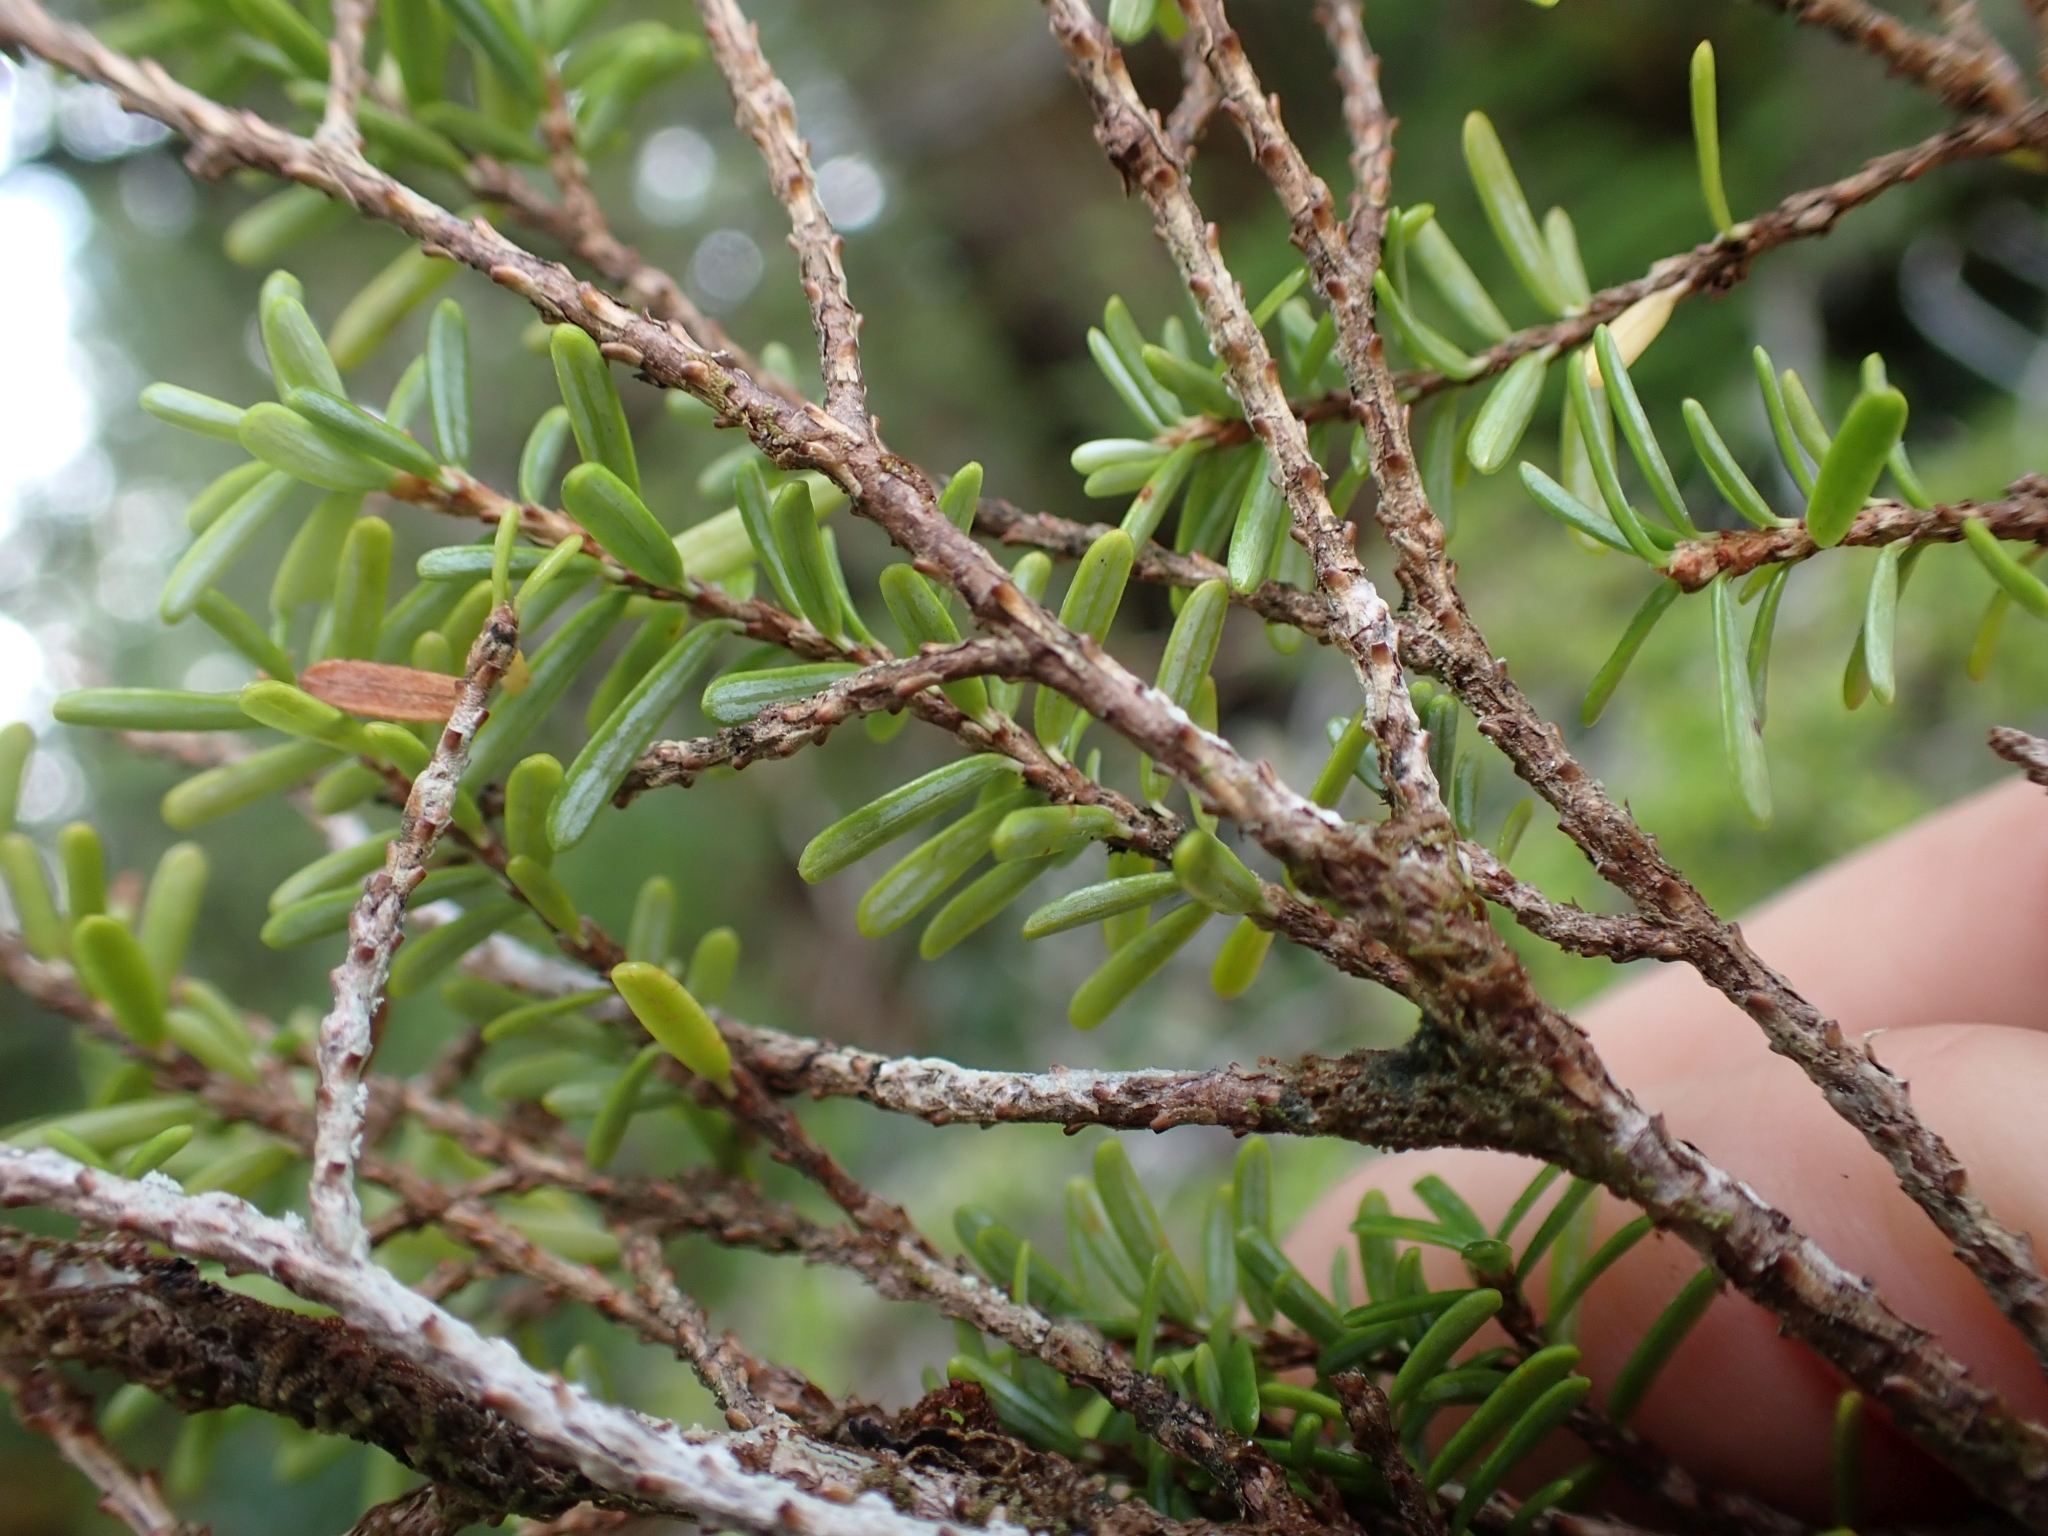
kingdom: Plantae
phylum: Tracheophyta
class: Pinopsida
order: Pinales
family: Pinaceae
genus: Tsuga
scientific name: Tsuga heterophylla
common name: Western hemlock
